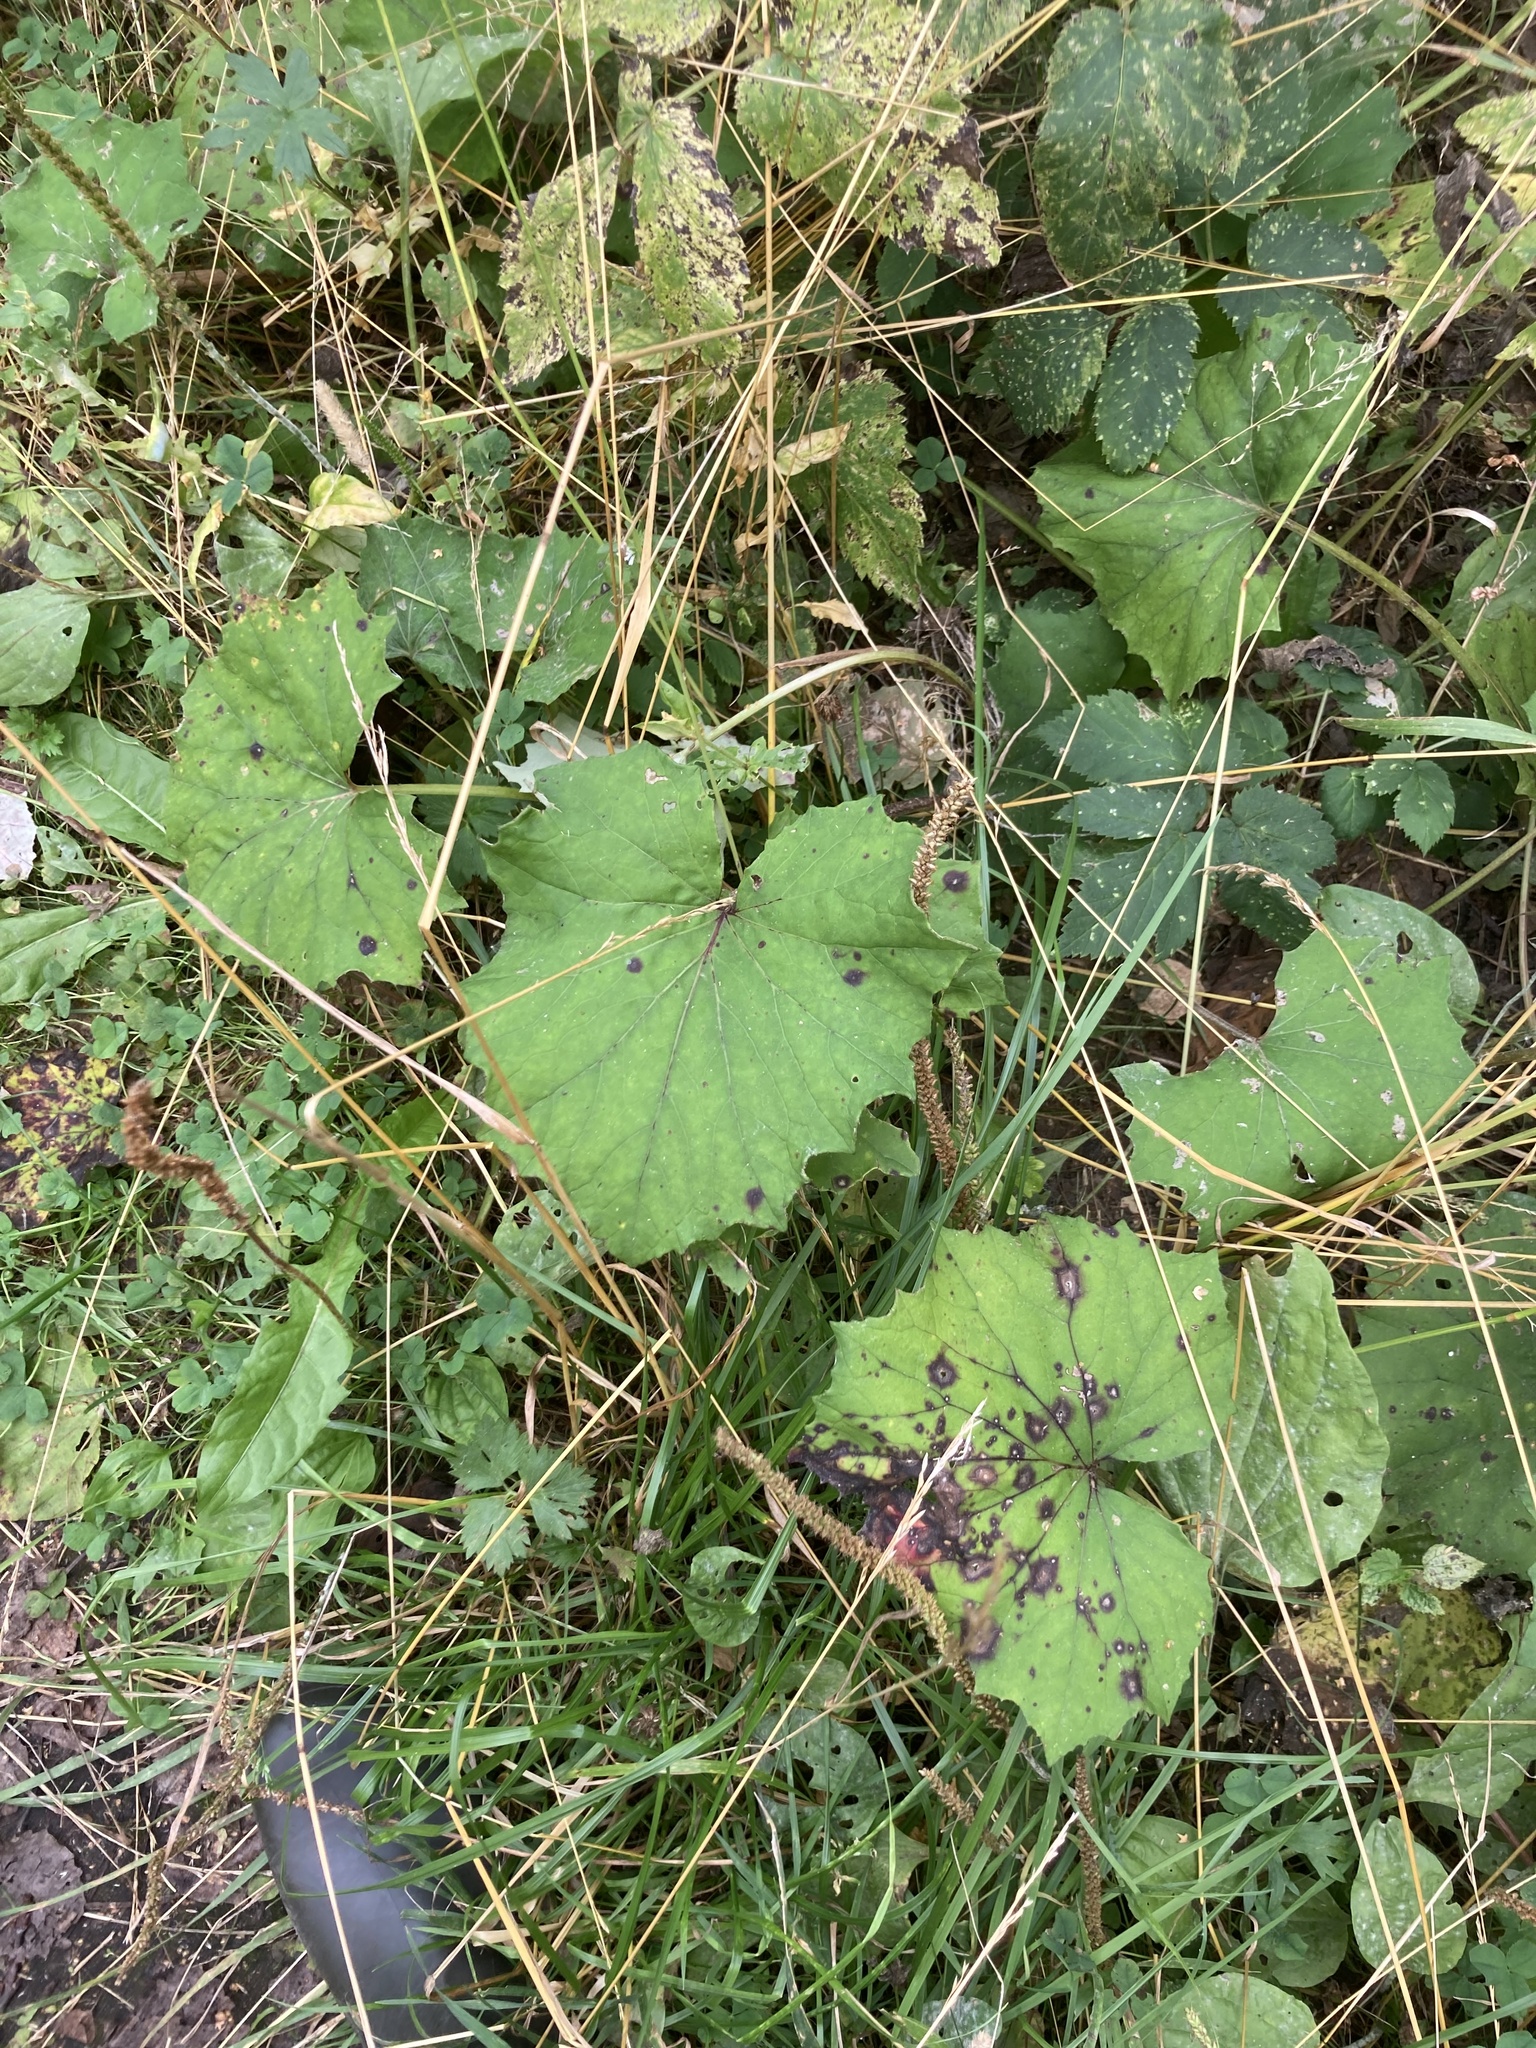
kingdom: Plantae
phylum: Tracheophyta
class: Magnoliopsida
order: Asterales
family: Asteraceae
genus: Tussilago
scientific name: Tussilago farfara
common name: Coltsfoot
